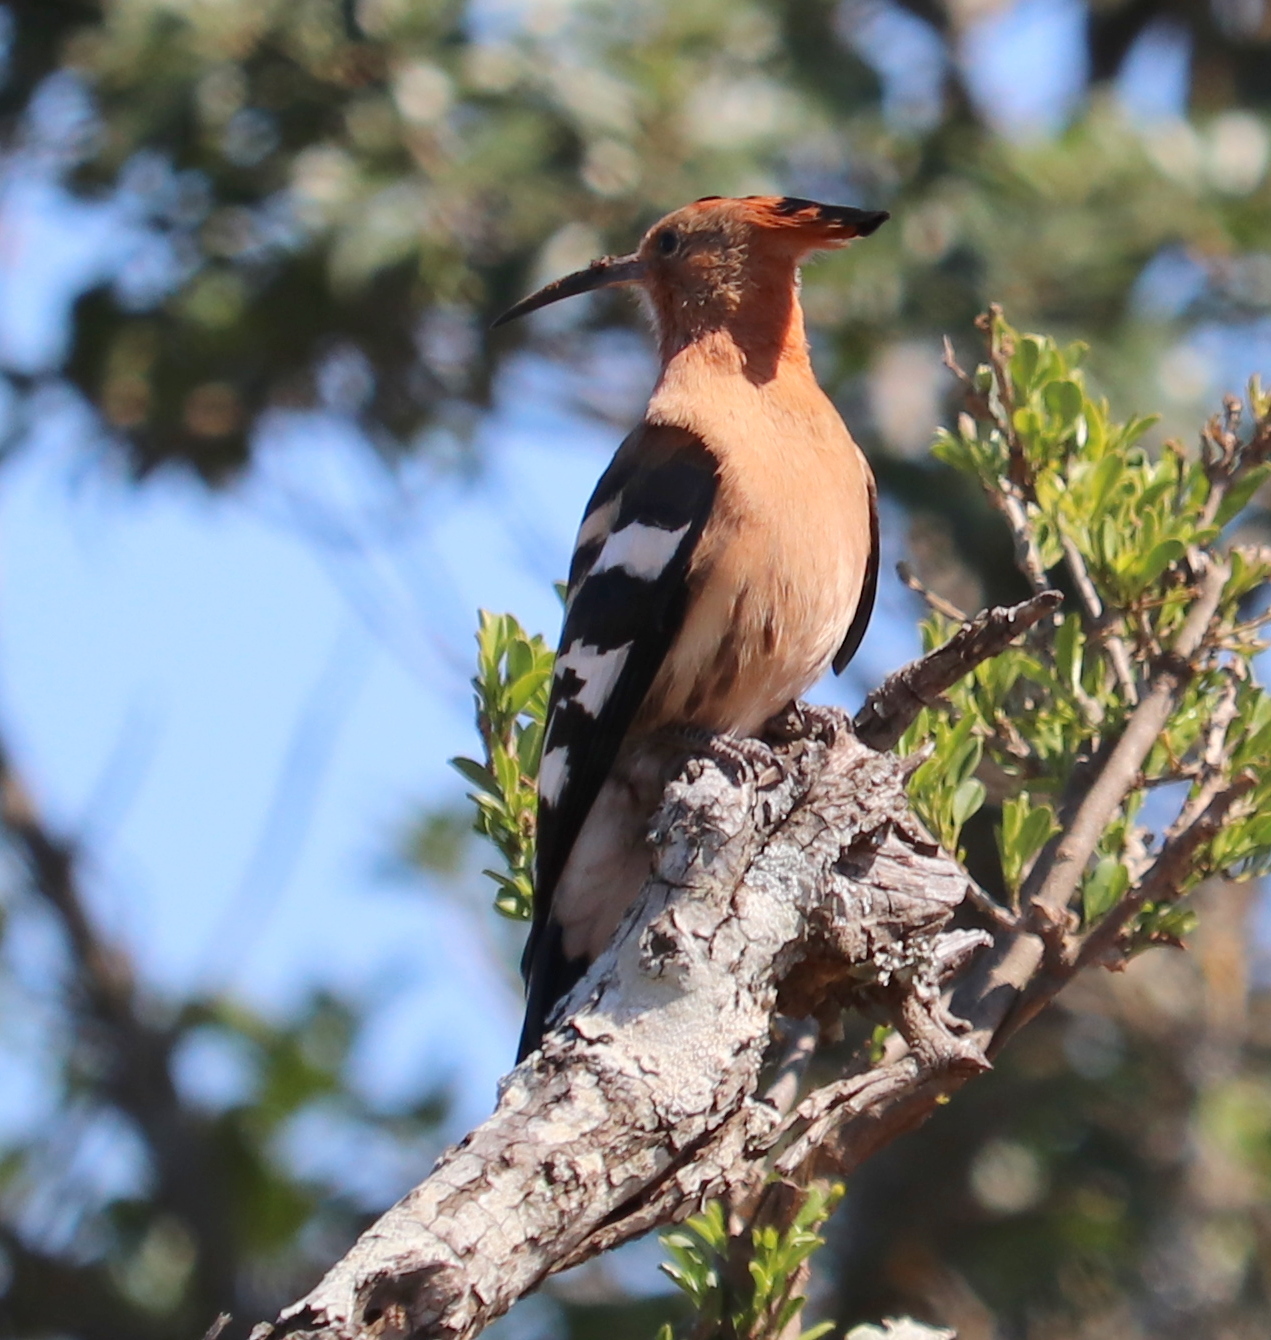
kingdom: Animalia
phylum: Chordata
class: Aves
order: Bucerotiformes
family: Upupidae
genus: Upupa
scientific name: Upupa africana
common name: African hoopoe
